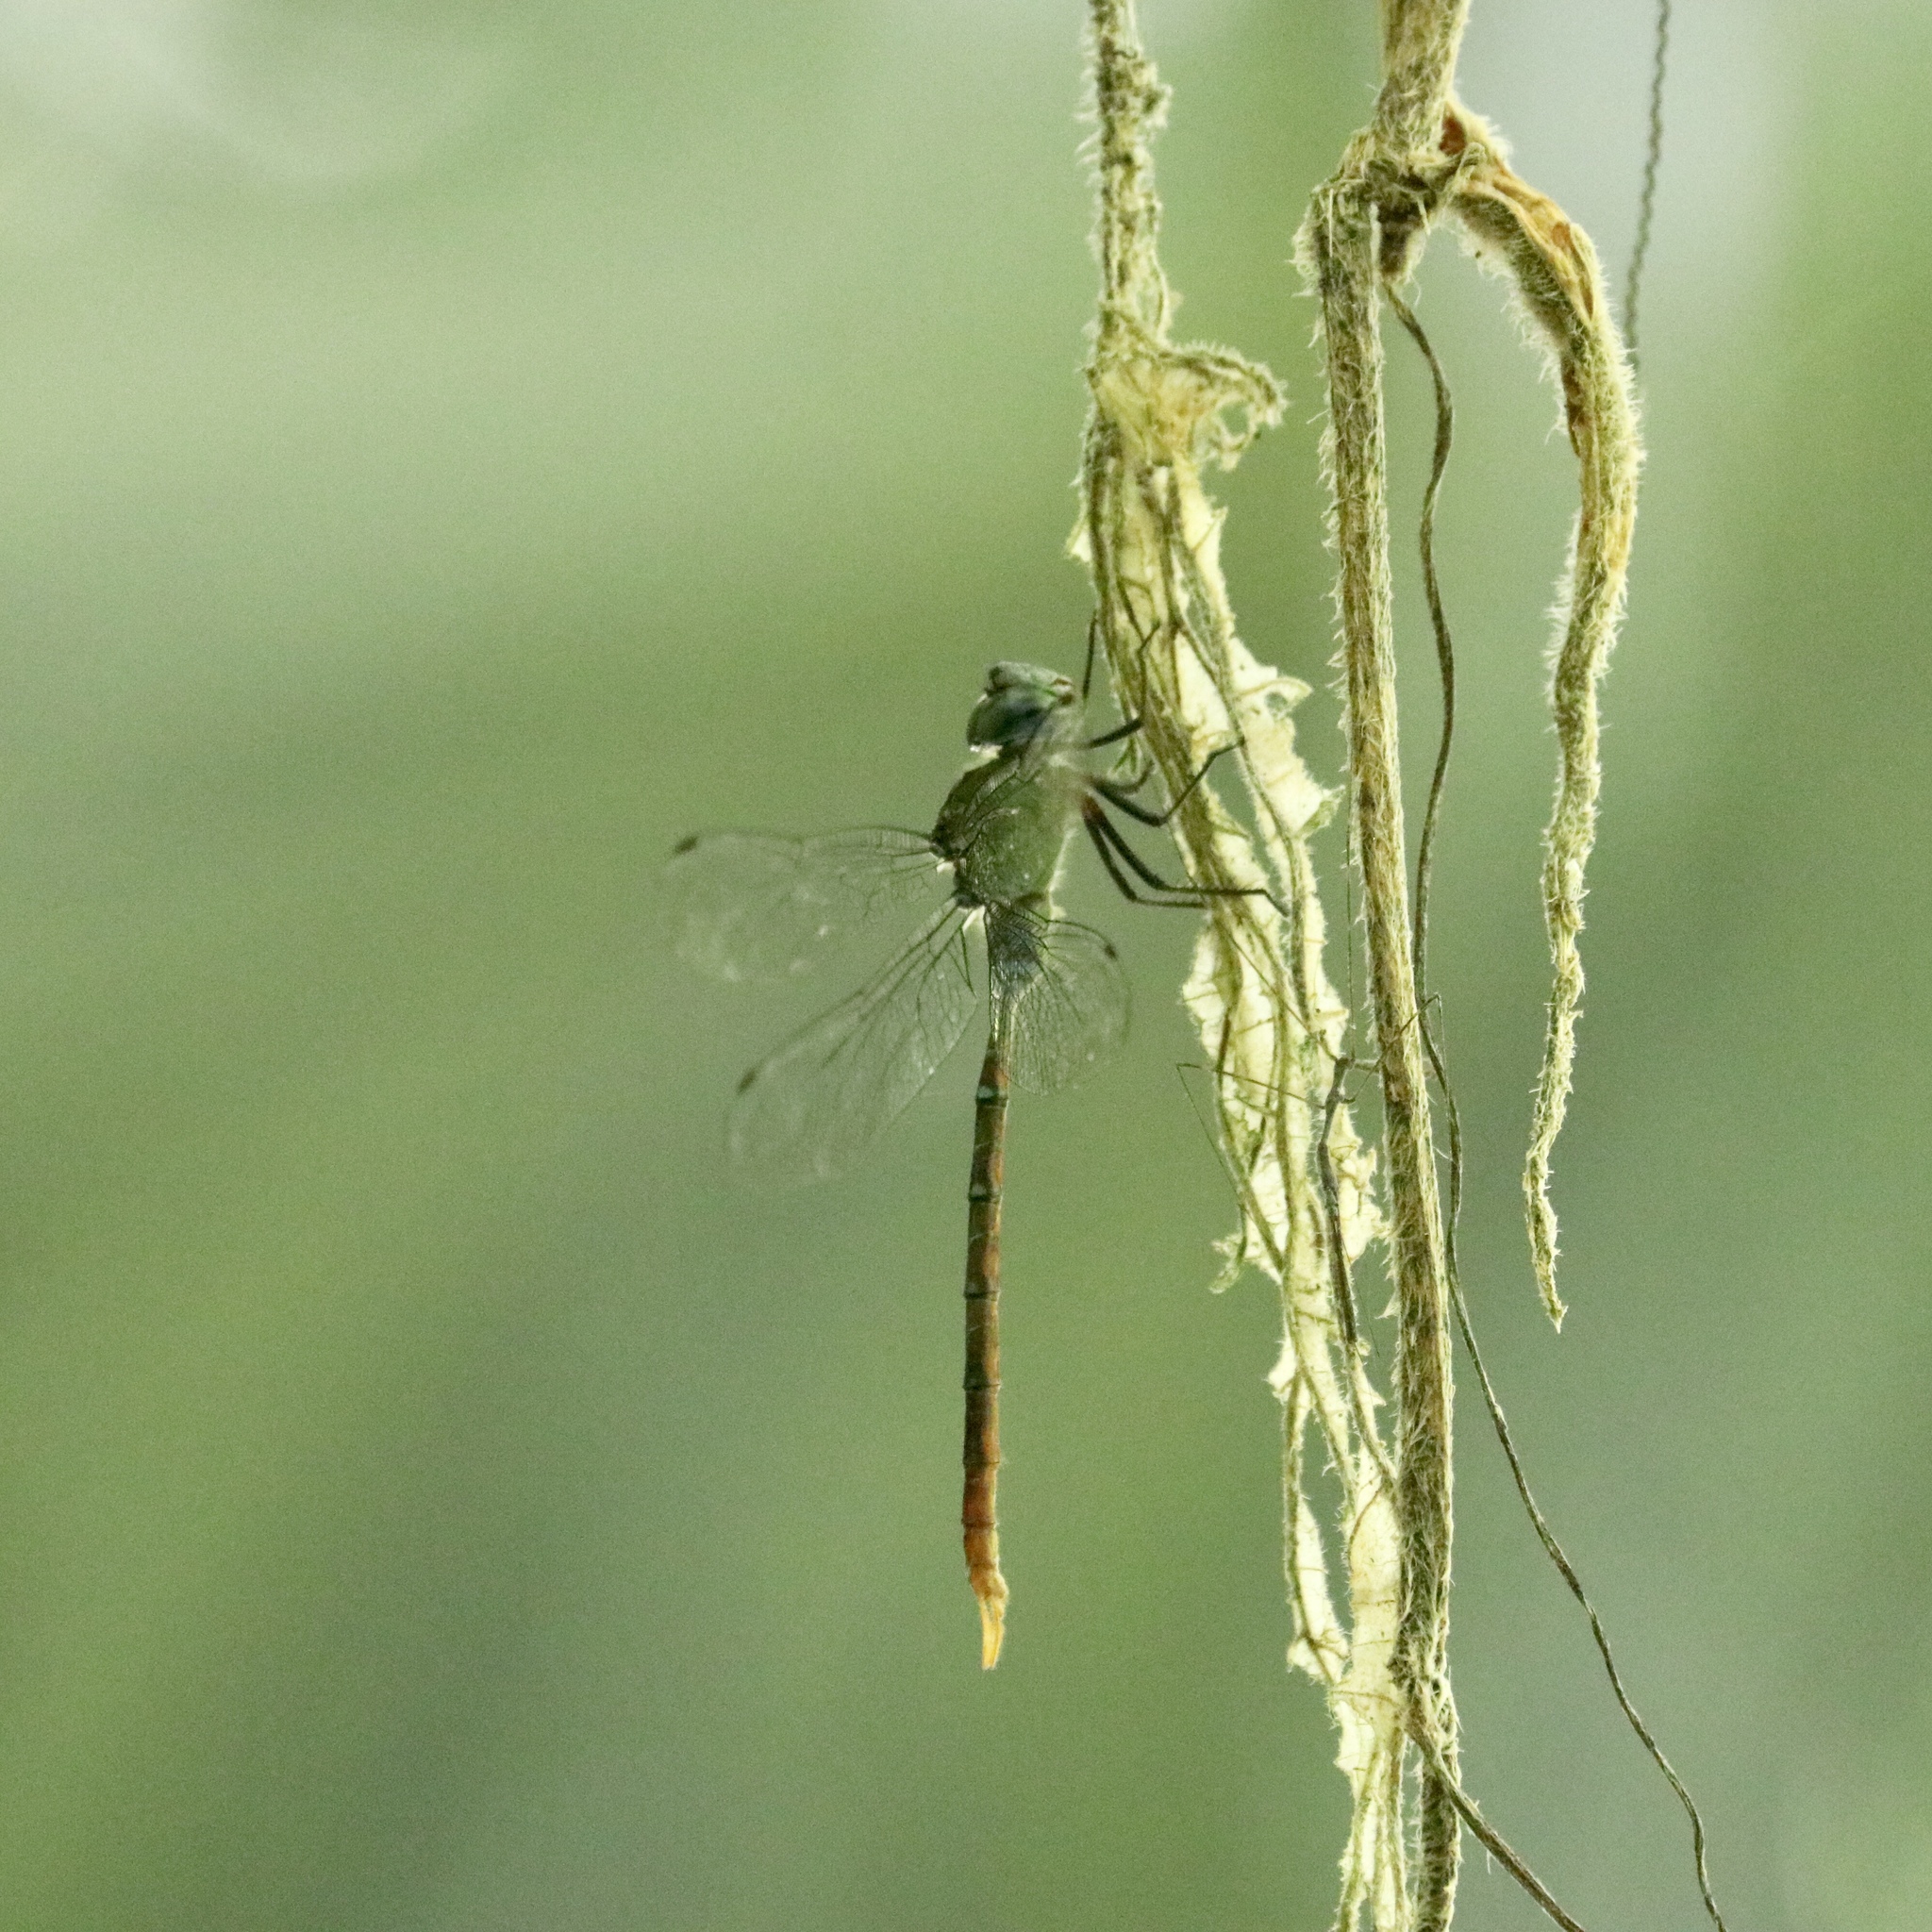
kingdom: Animalia
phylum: Arthropoda
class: Insecta
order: Odonata
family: Aeshnidae
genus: Gynacantha
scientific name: Gynacantha tibiata
